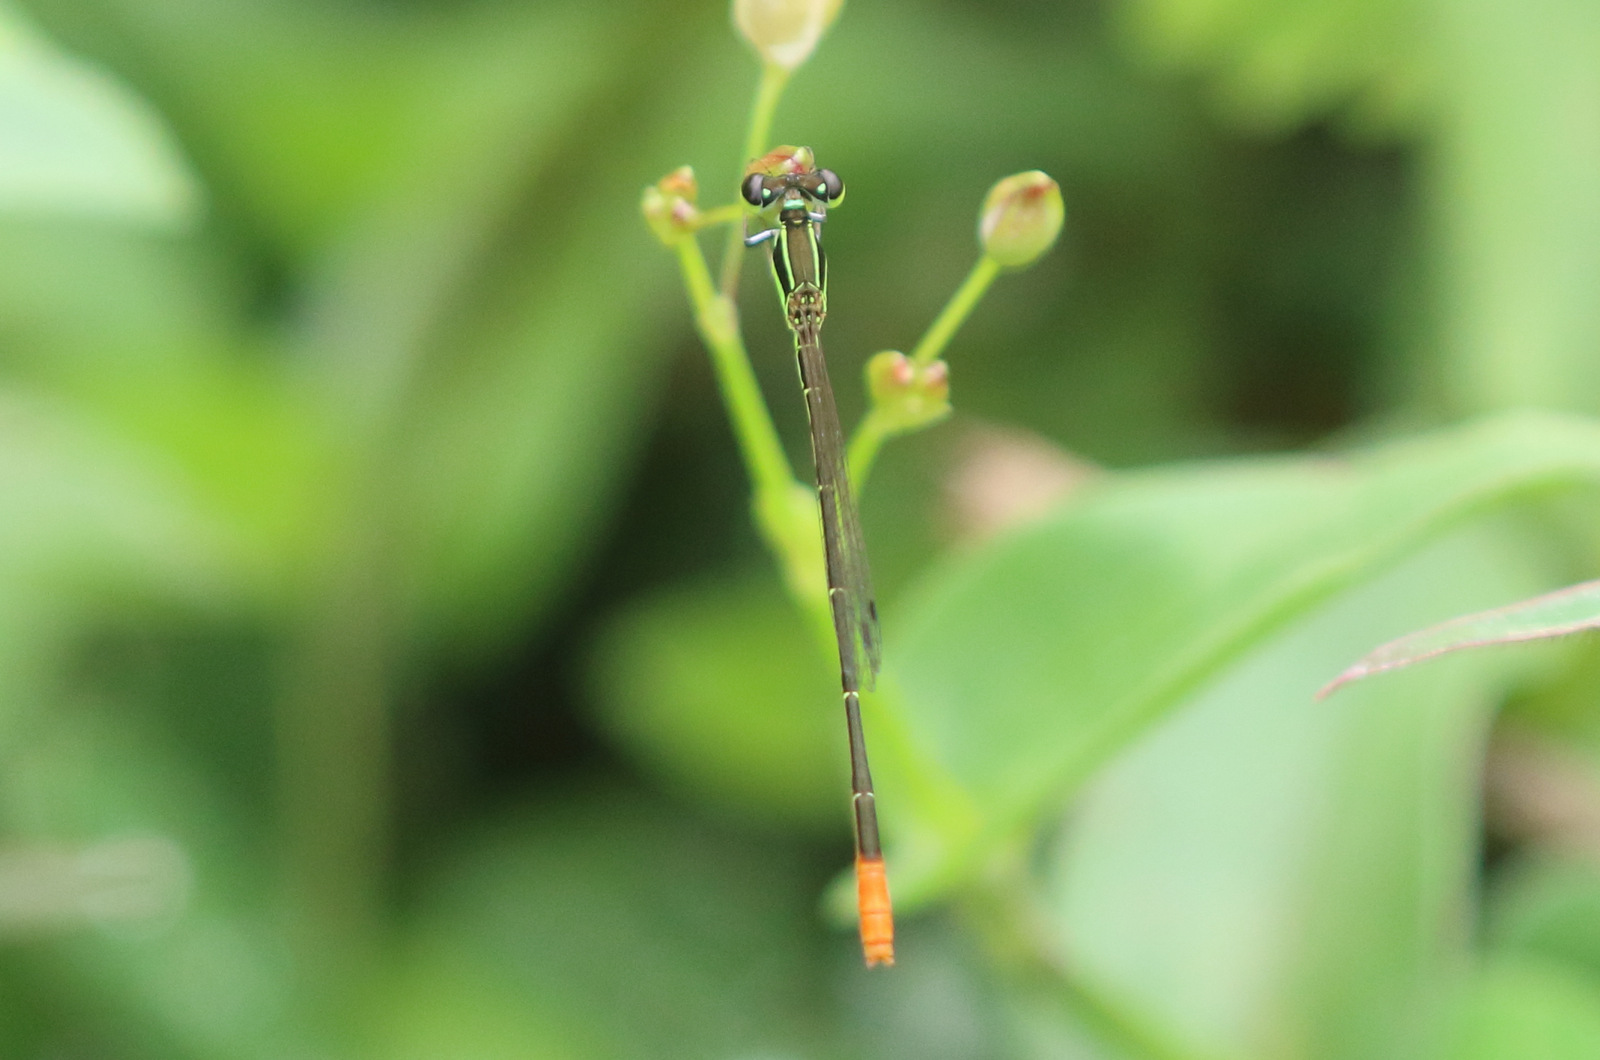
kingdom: Animalia
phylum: Arthropoda
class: Insecta
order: Odonata
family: Coenagrionidae
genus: Agriocnemis
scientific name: Agriocnemis exsudans
